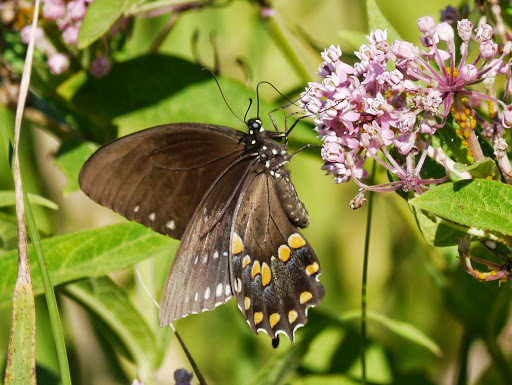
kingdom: Animalia
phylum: Arthropoda
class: Insecta
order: Lepidoptera
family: Papilionidae
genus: Papilio
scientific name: Papilio troilus
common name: Spicebush swallowtail
